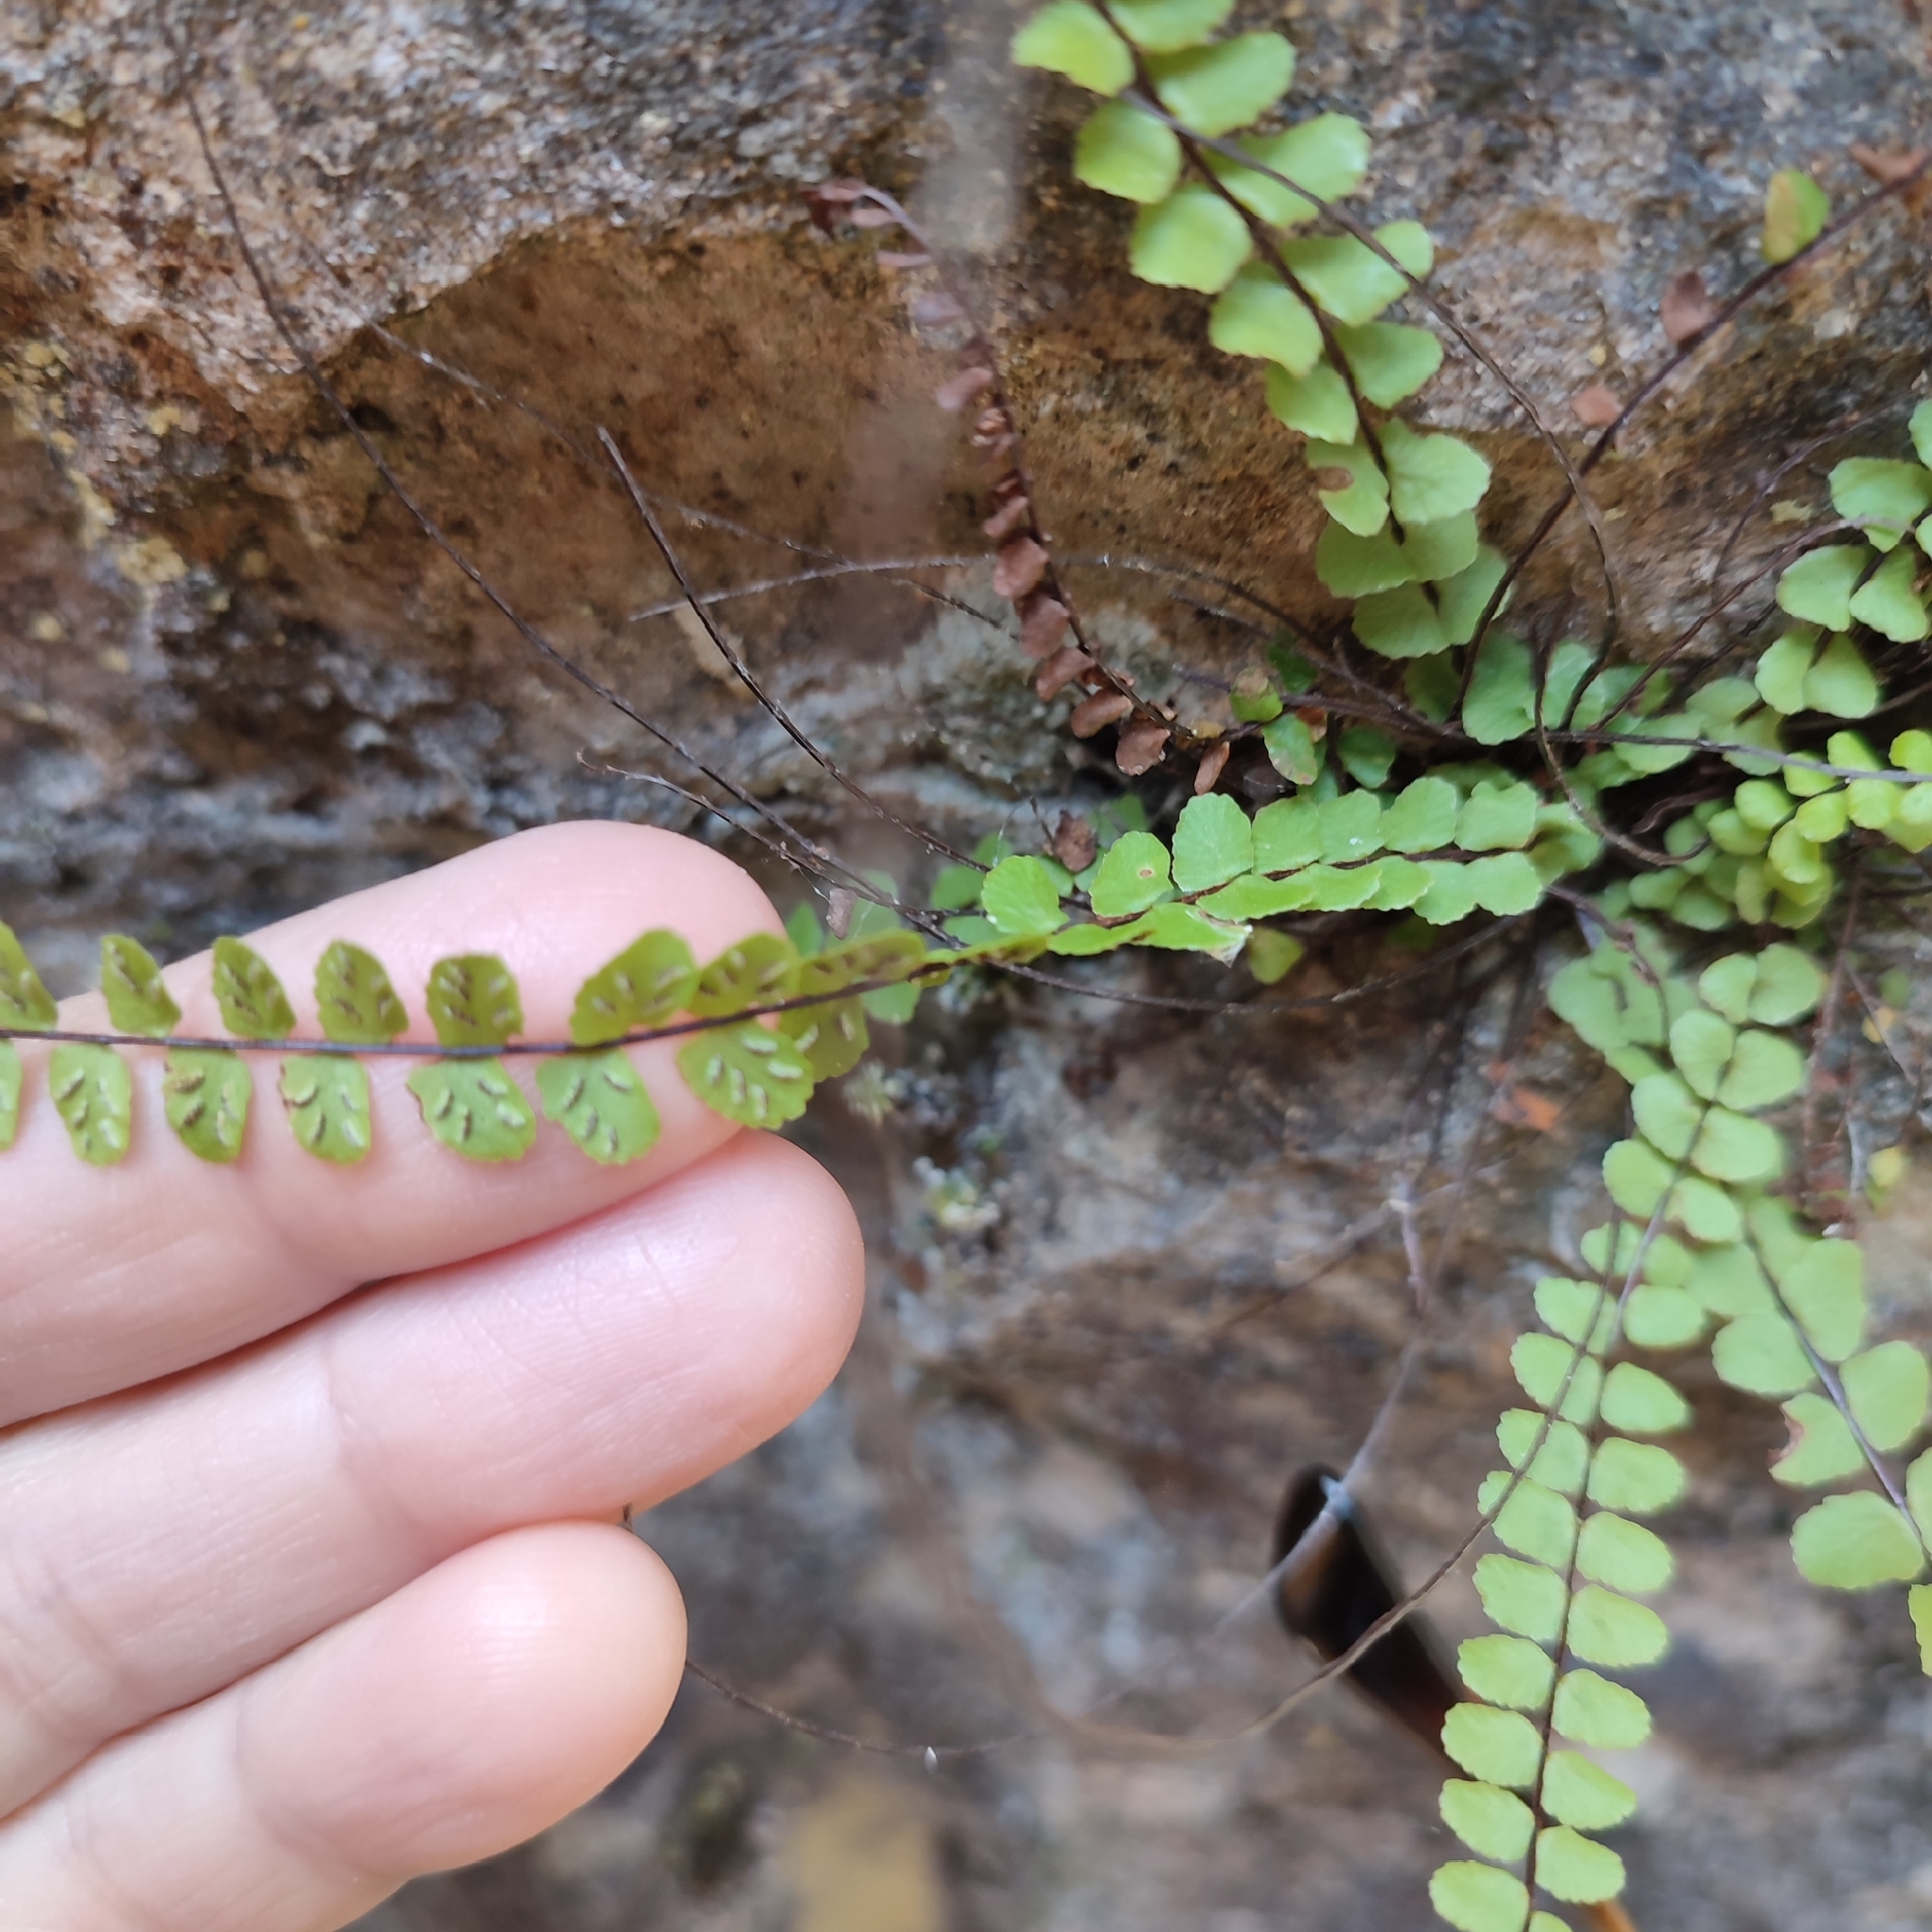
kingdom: Plantae
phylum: Tracheophyta
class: Polypodiopsida
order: Polypodiales
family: Aspleniaceae
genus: Asplenium
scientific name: Asplenium trichomanes
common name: Maidenhair spleenwort
